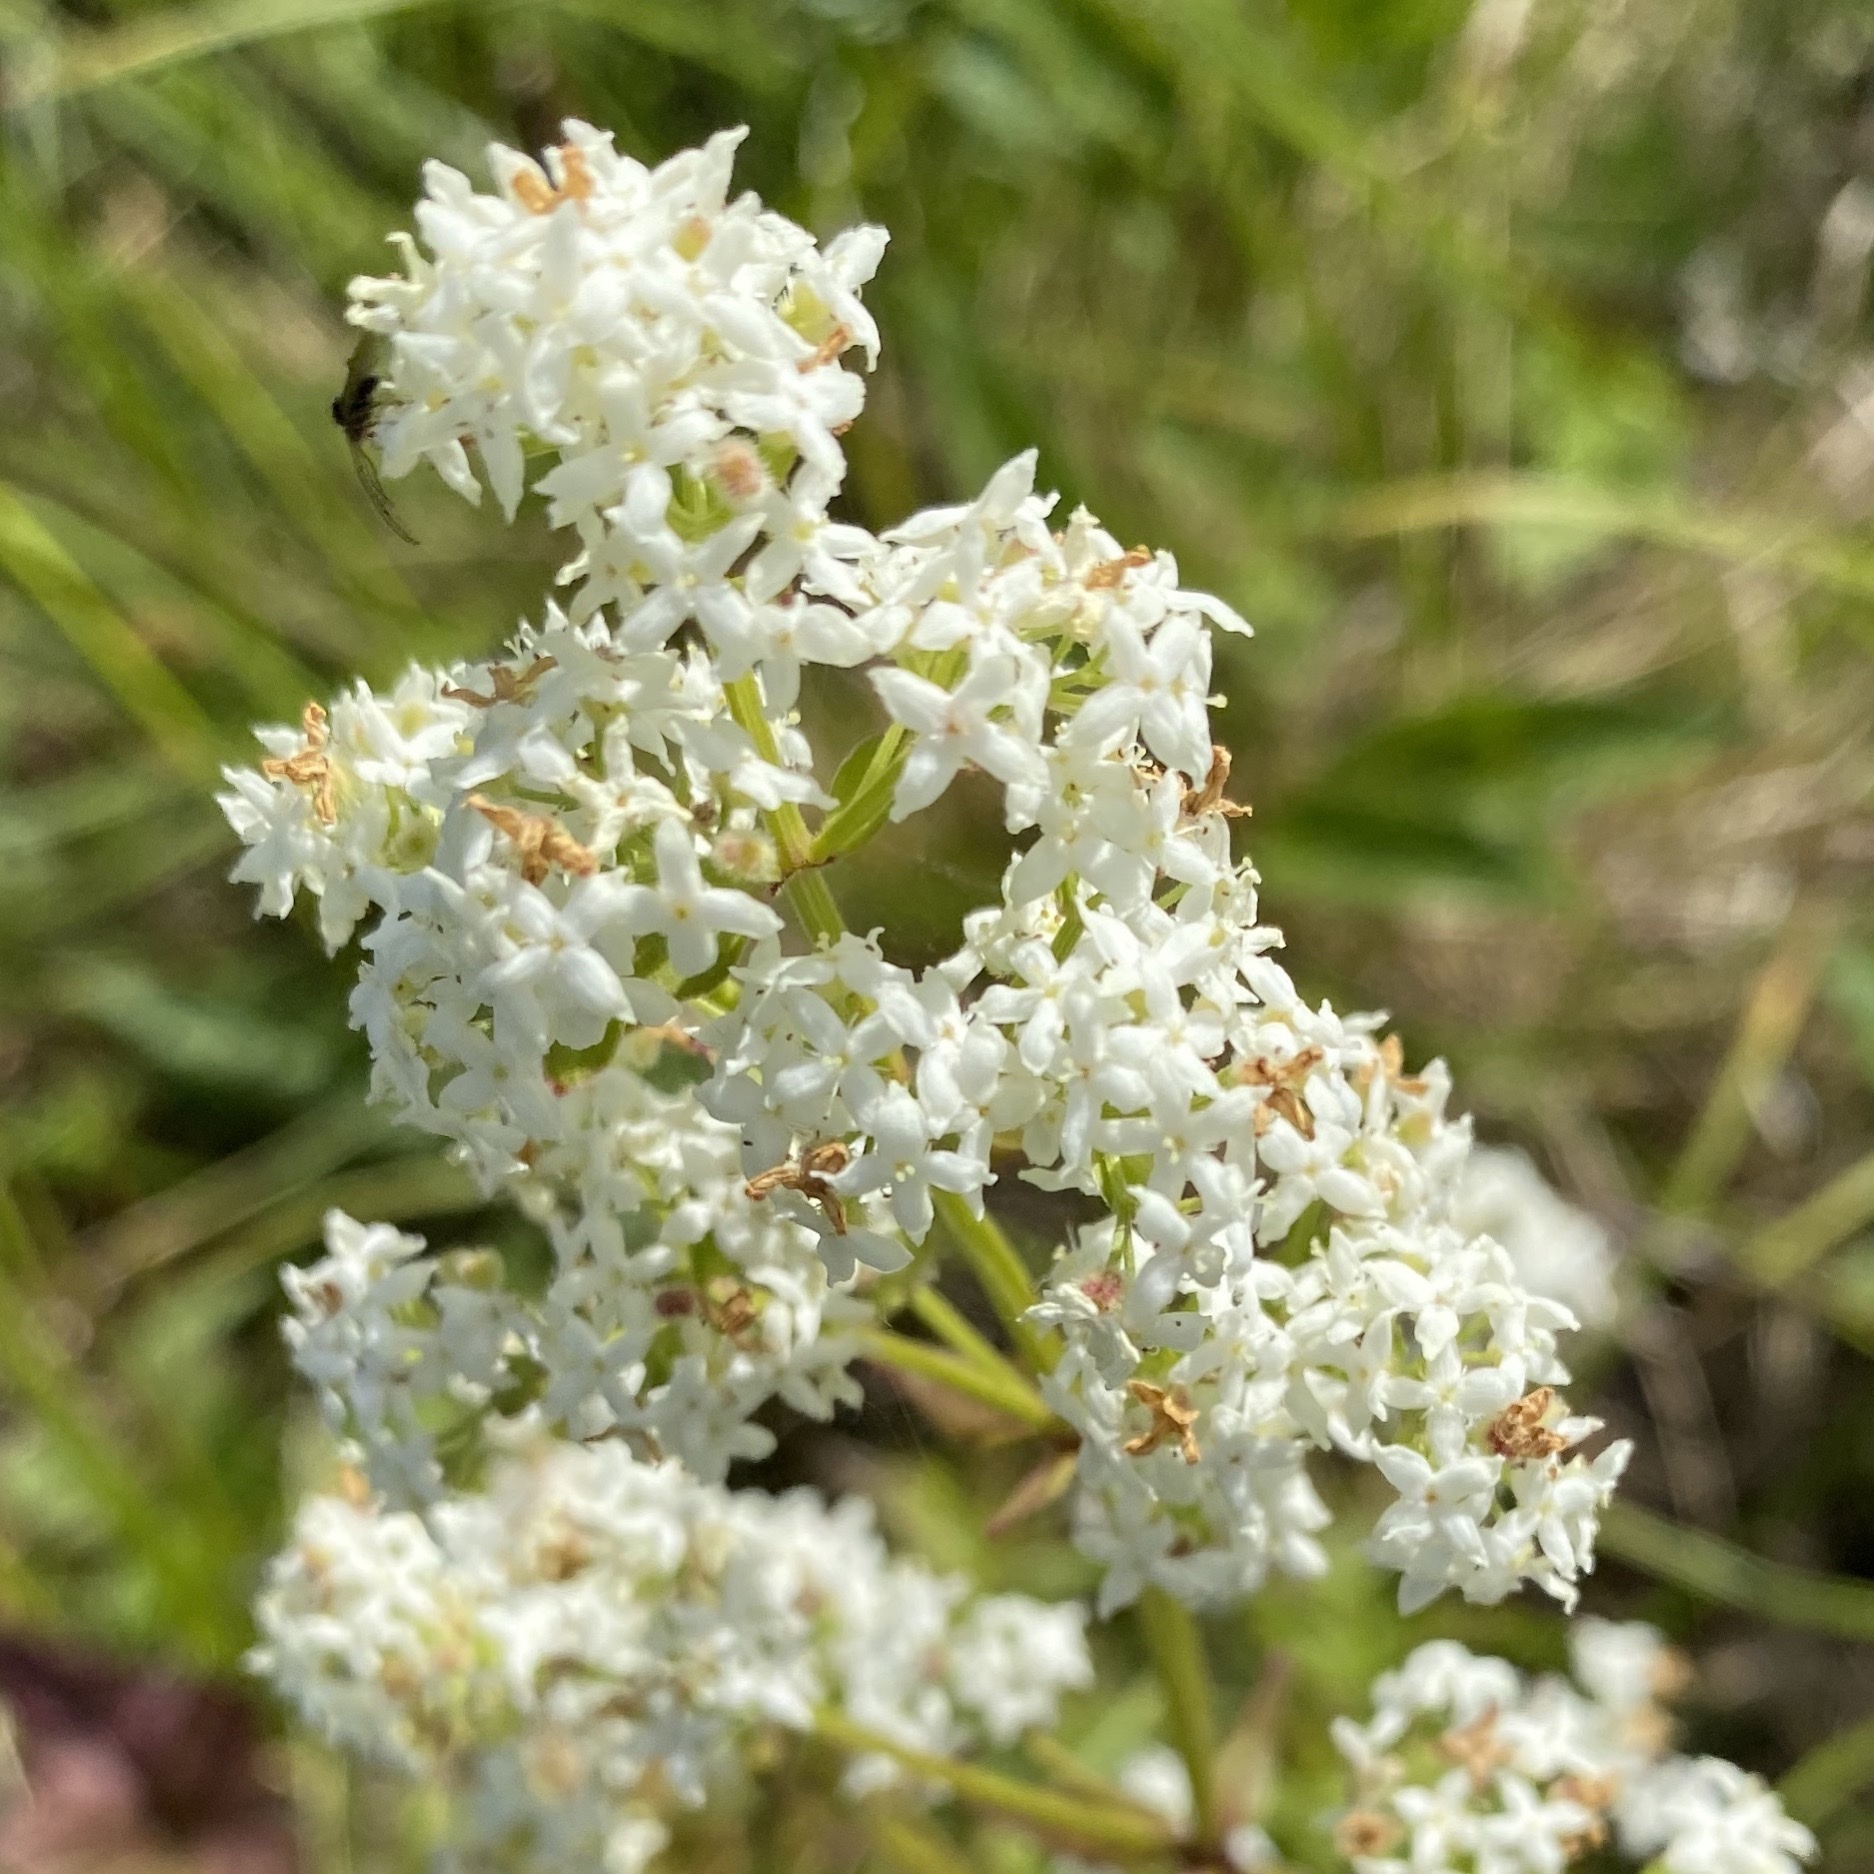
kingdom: Plantae
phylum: Tracheophyta
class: Magnoliopsida
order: Gentianales
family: Rubiaceae
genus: Galium
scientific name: Galium boreale
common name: Northern bedstraw
